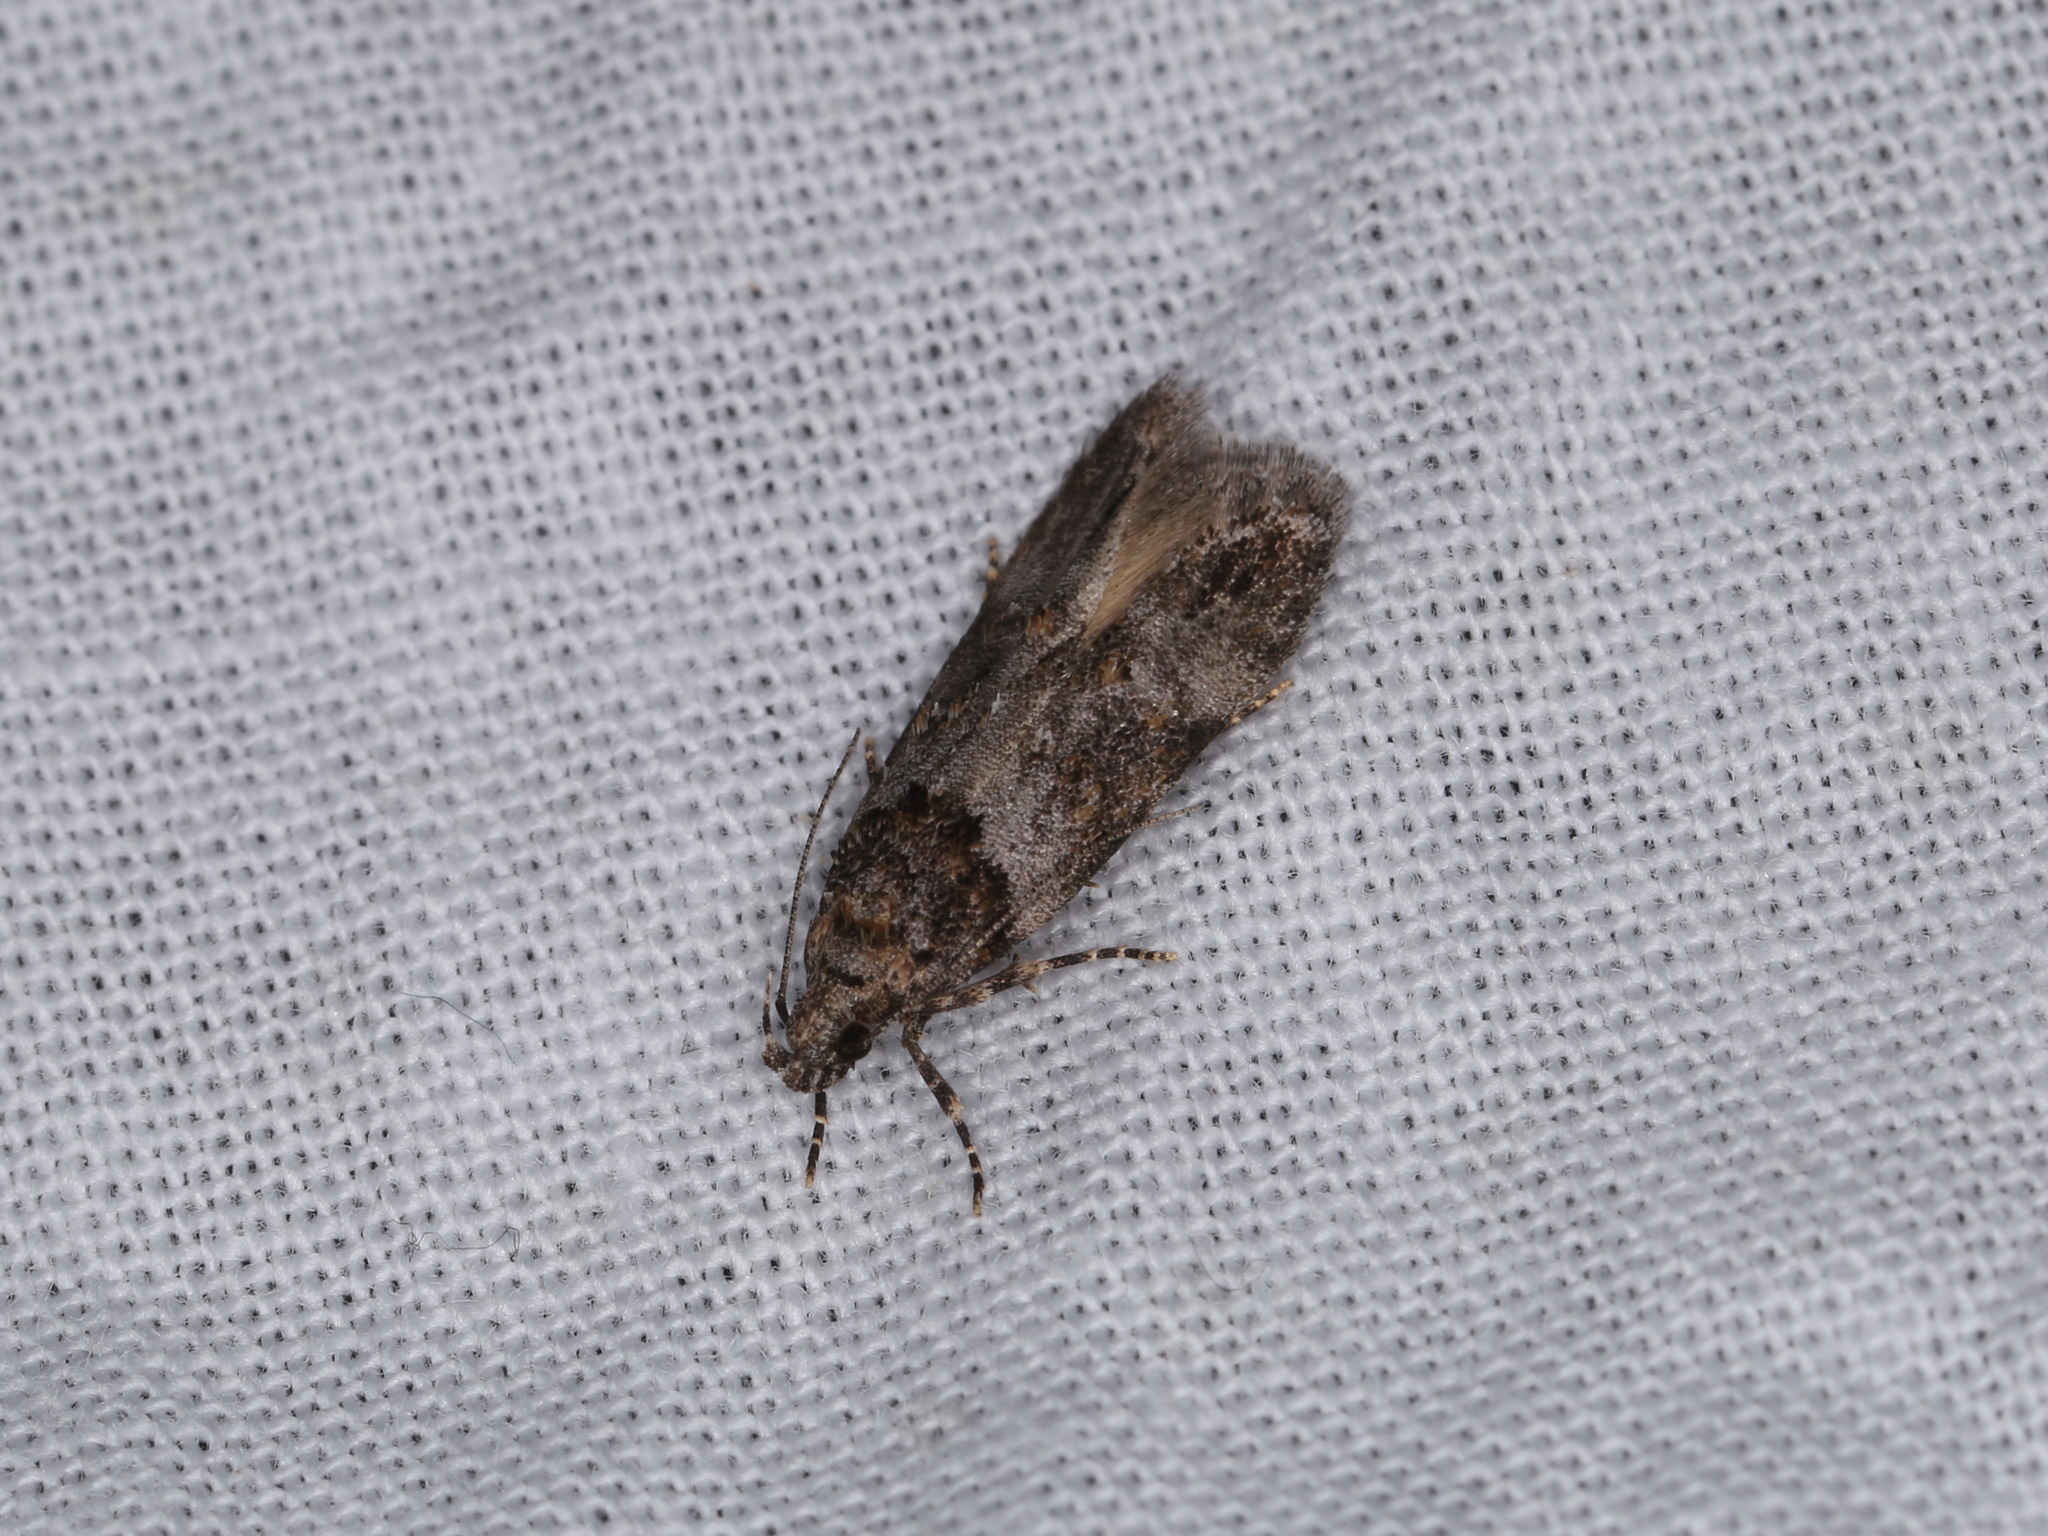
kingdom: Animalia
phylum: Arthropoda
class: Insecta
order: Lepidoptera
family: Gelechiidae
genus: Teleiopsis
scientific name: Teleiopsis baldiana
